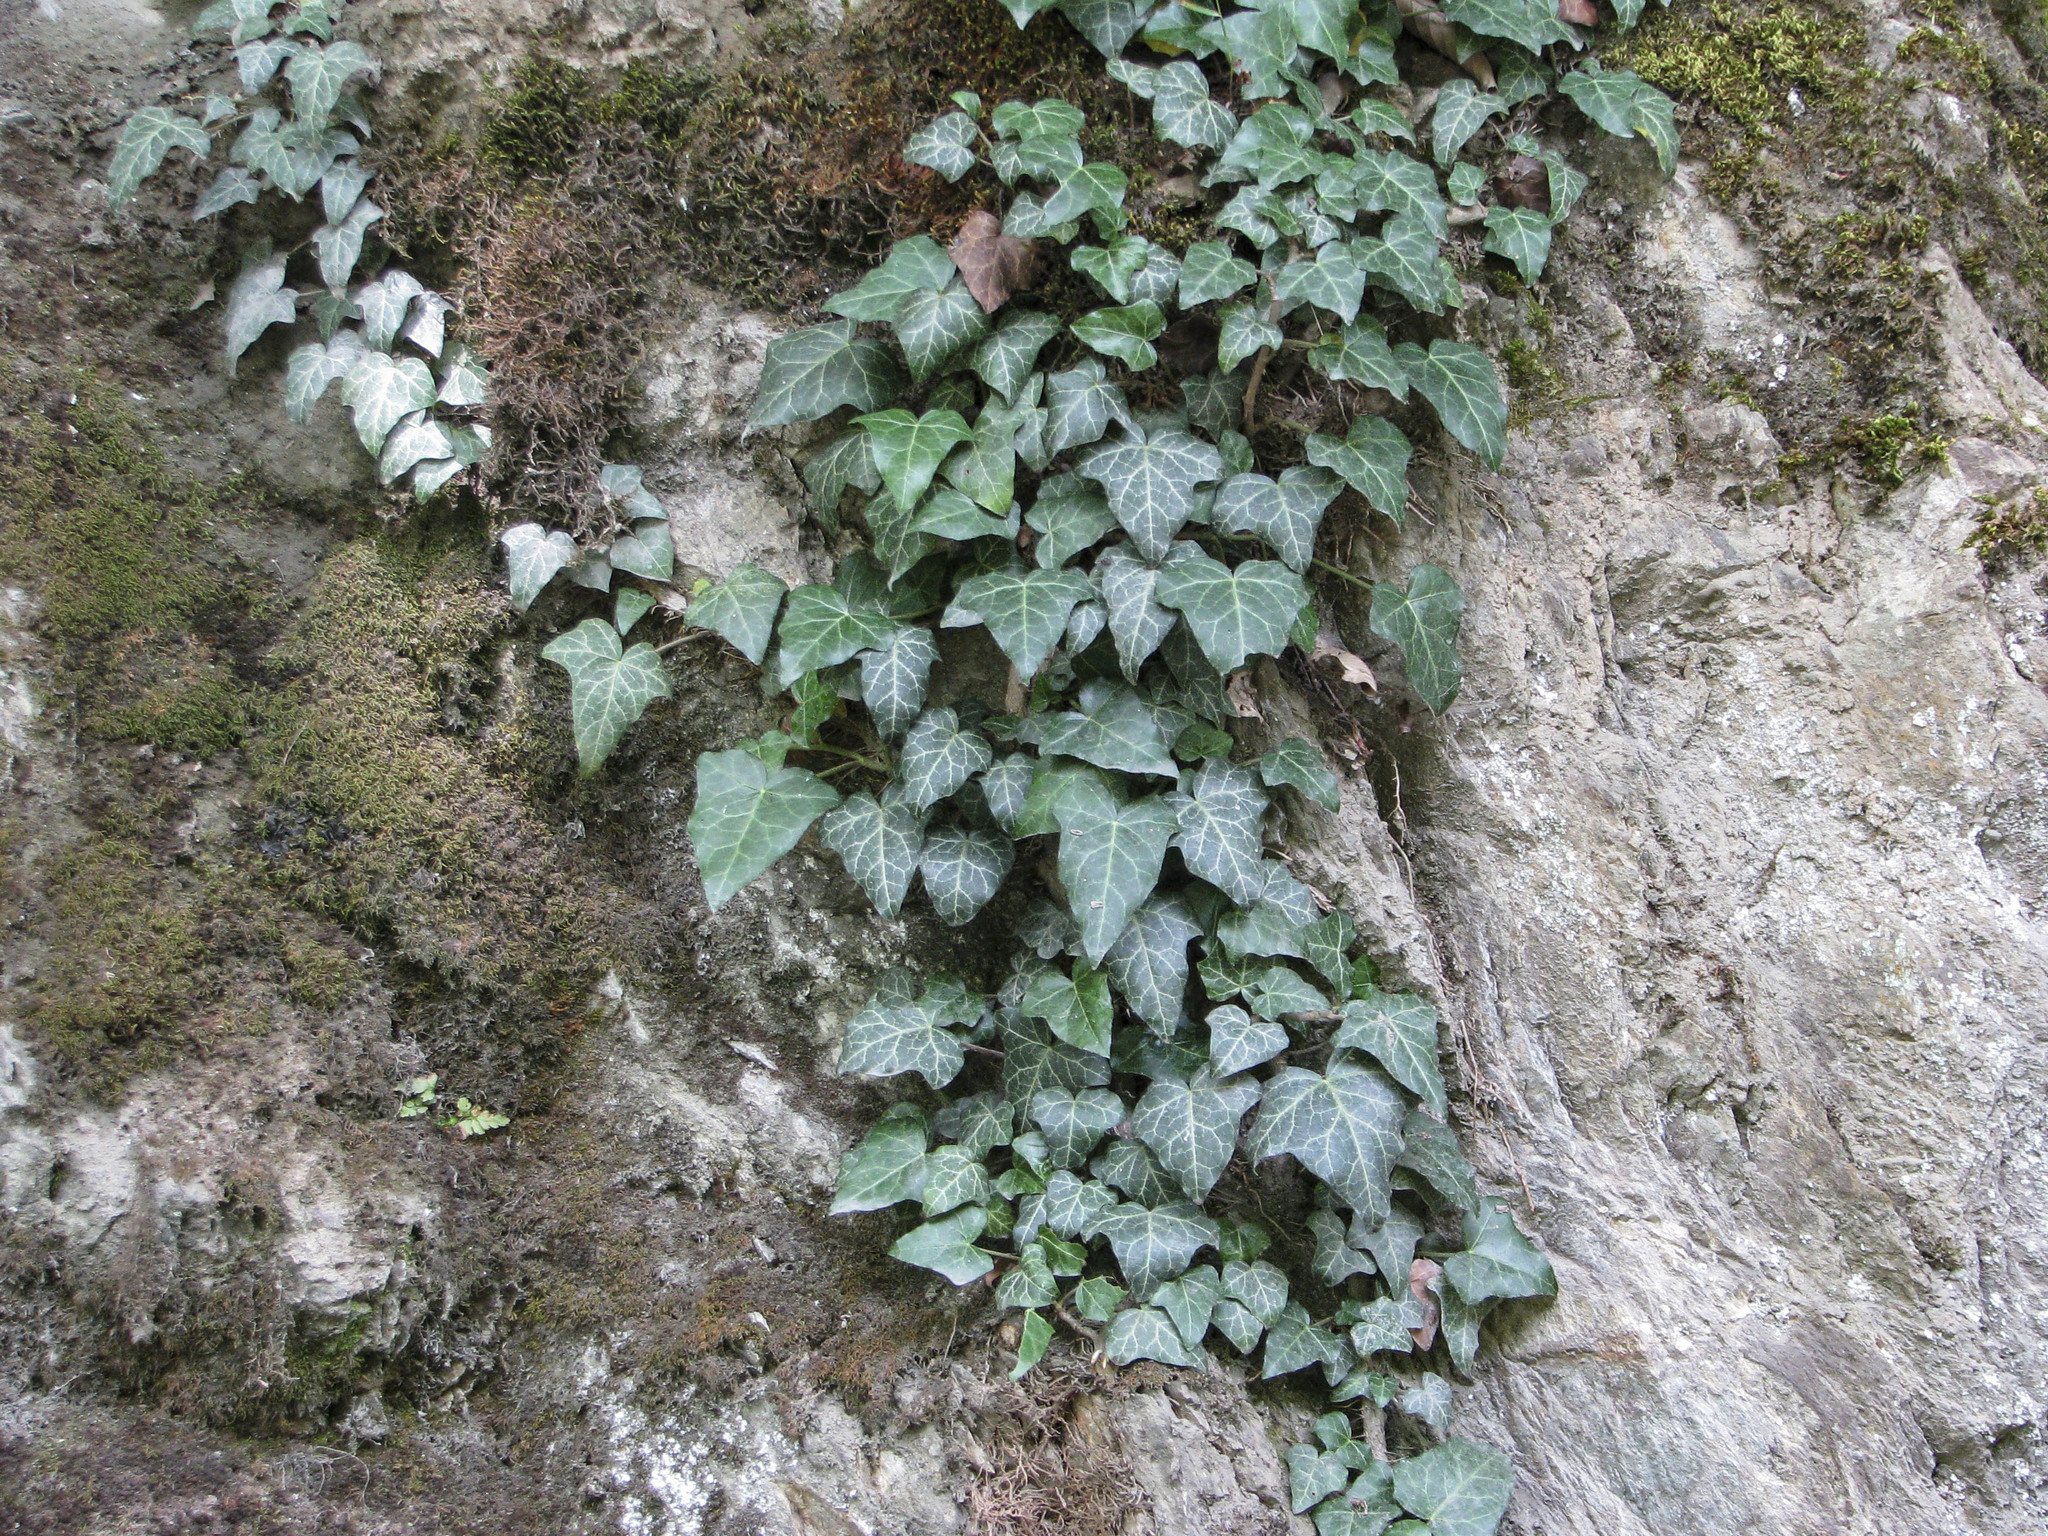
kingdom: Plantae
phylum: Tracheophyta
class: Magnoliopsida
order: Apiales
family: Araliaceae
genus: Hedera
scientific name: Hedera helix
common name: Ivy
